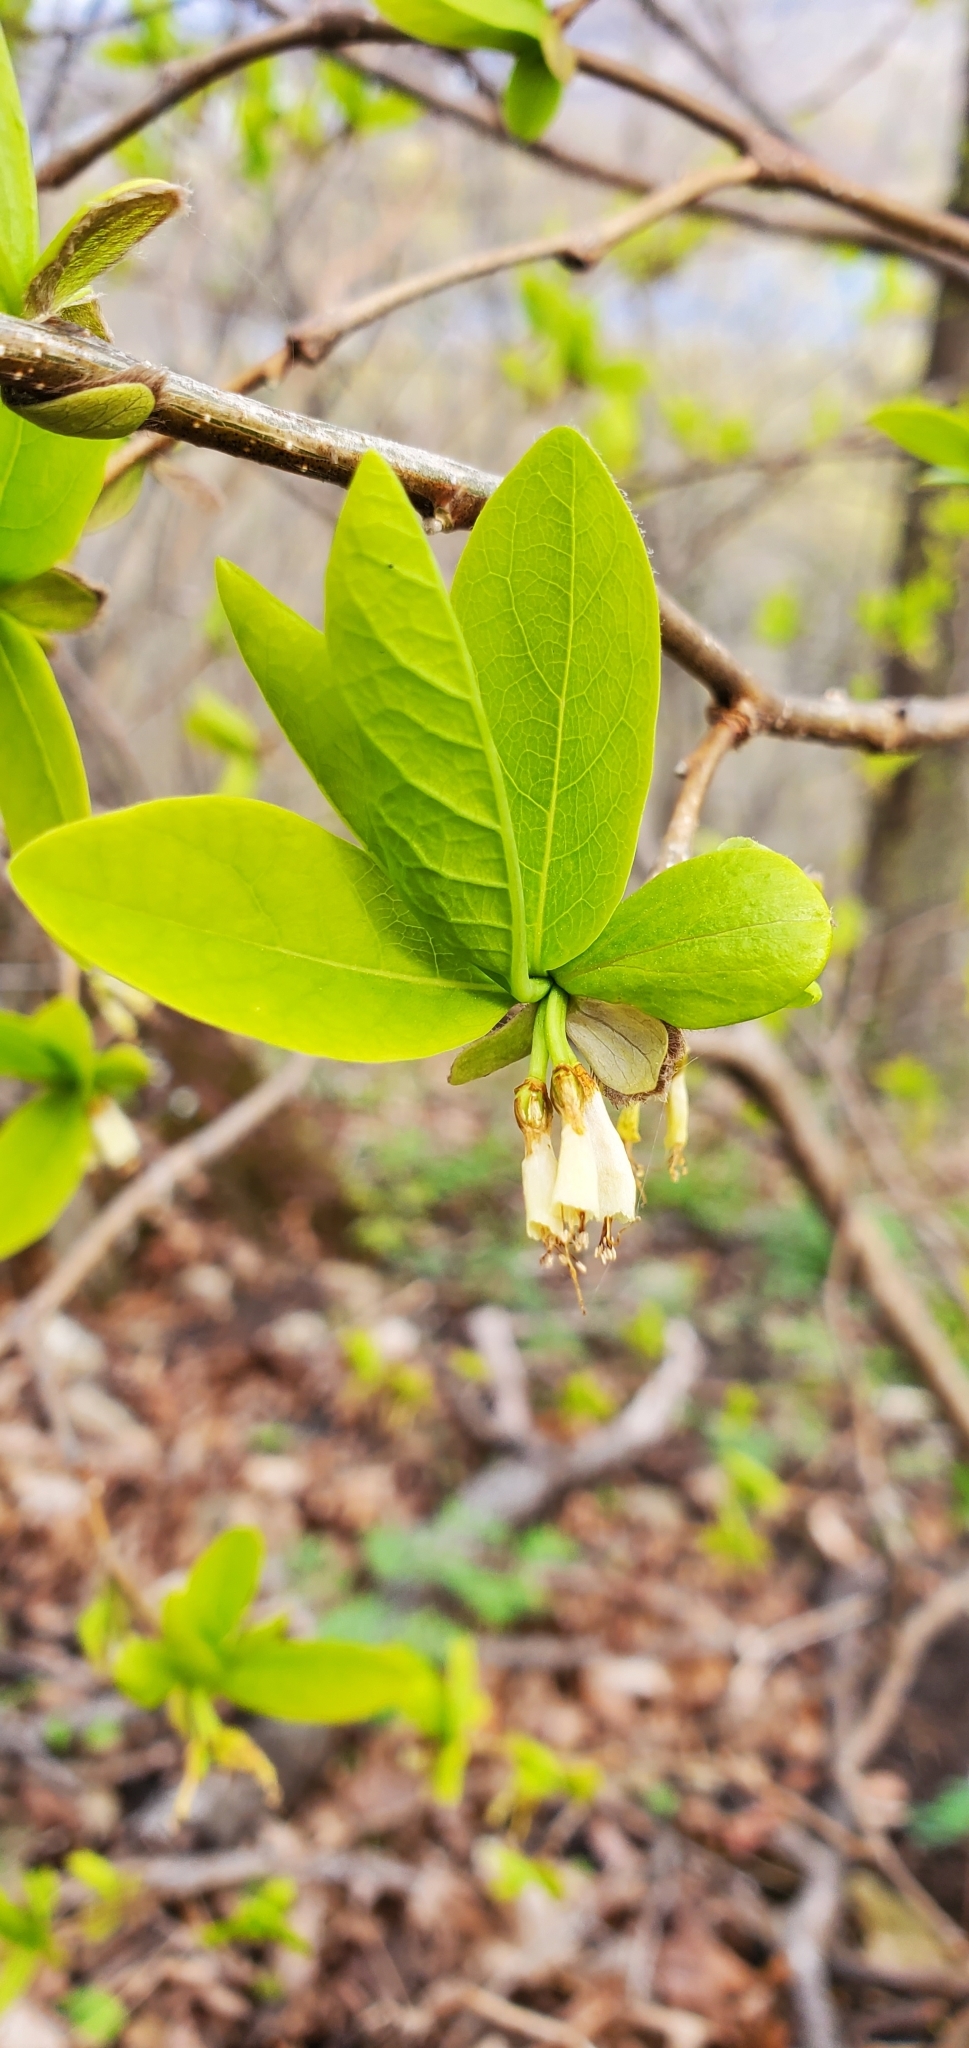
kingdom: Plantae
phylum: Tracheophyta
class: Magnoliopsida
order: Malvales
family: Thymelaeaceae
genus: Dirca
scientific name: Dirca palustris
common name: Leatherwood
